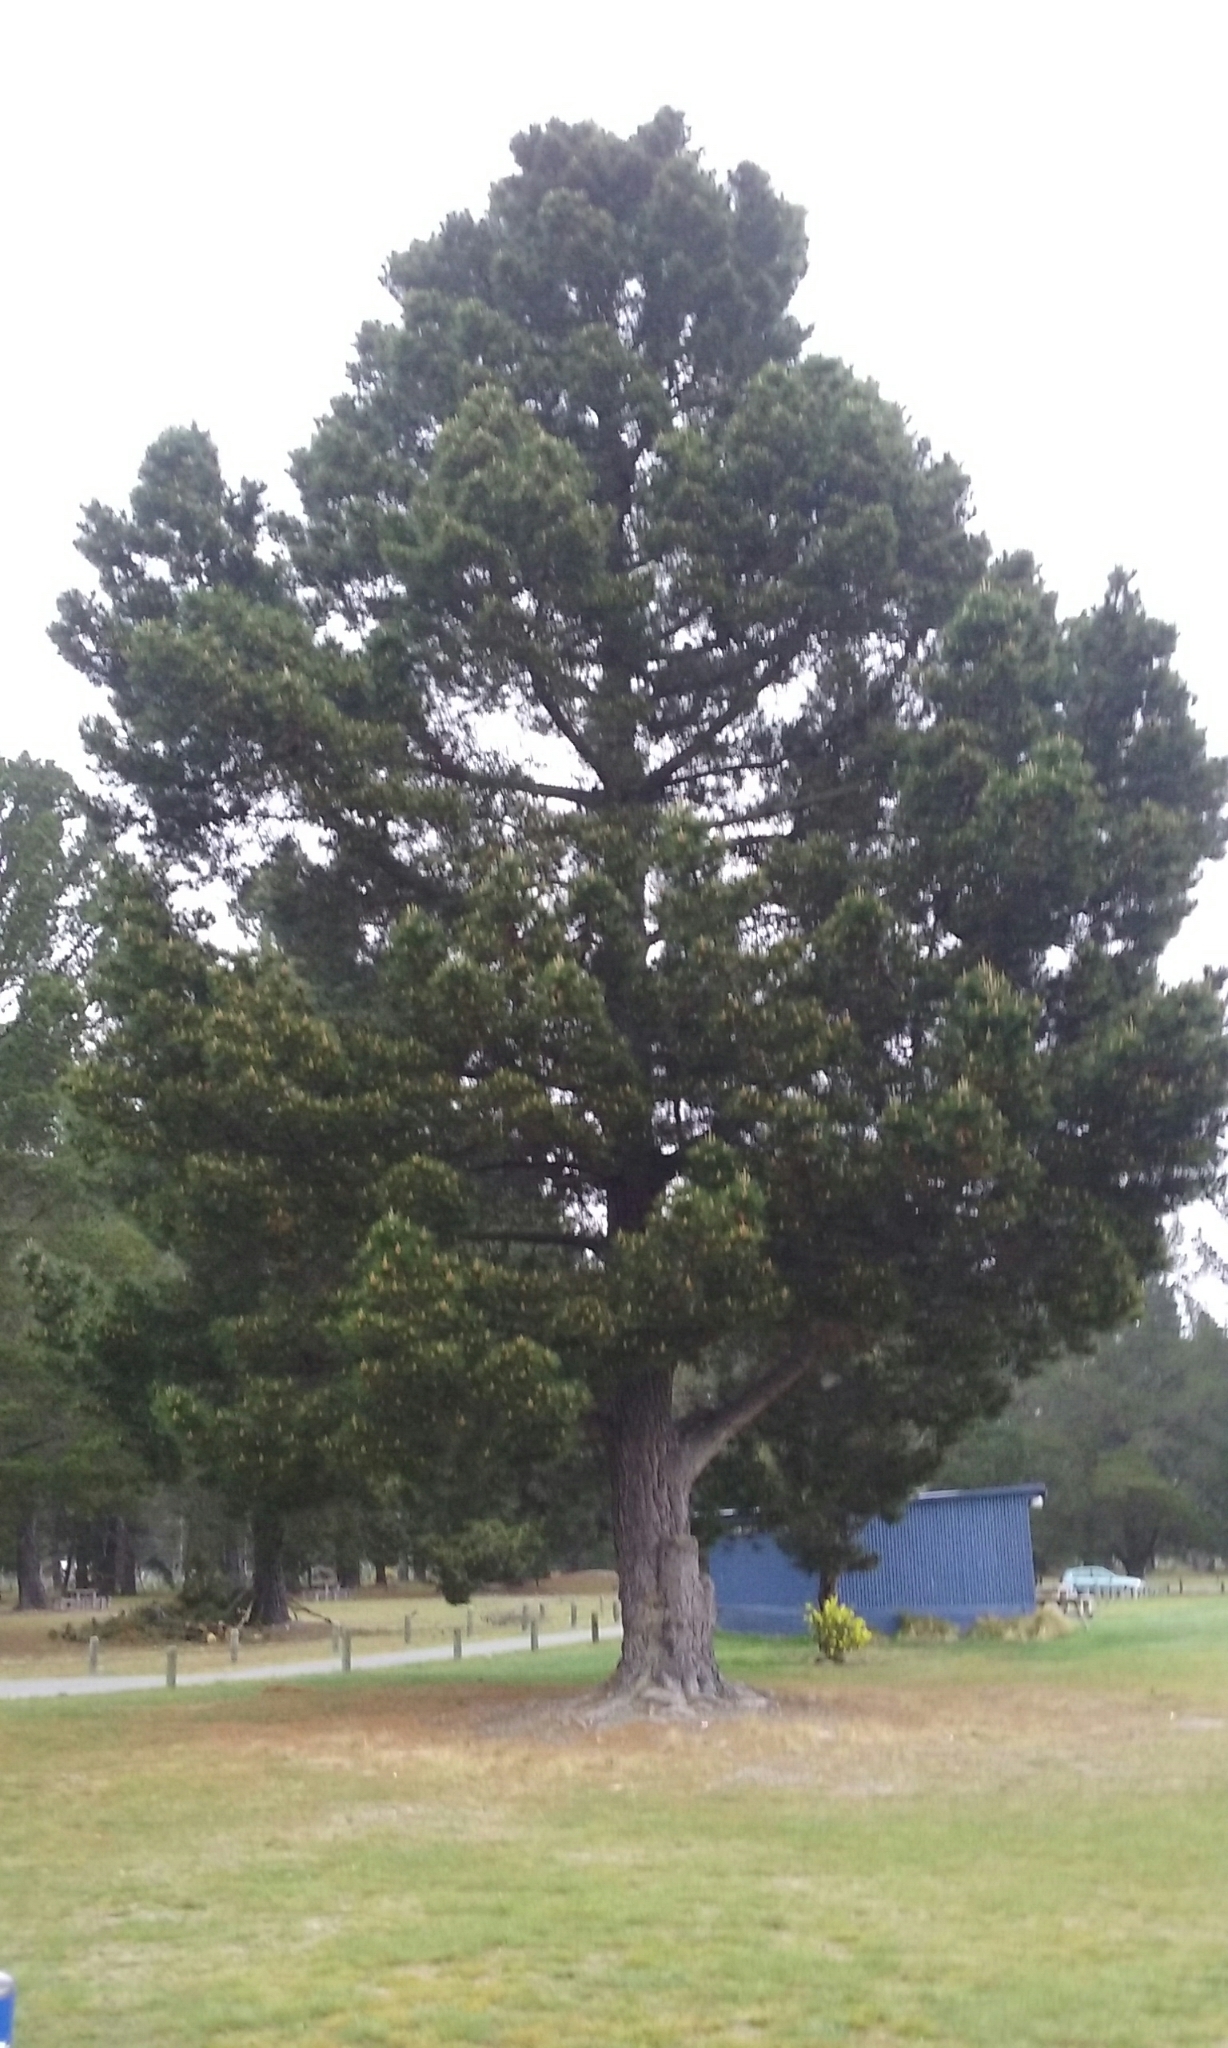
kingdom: Plantae
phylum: Tracheophyta
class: Pinopsida
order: Pinales
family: Pinaceae
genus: Pinus
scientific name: Pinus radiata
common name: Monterey pine
